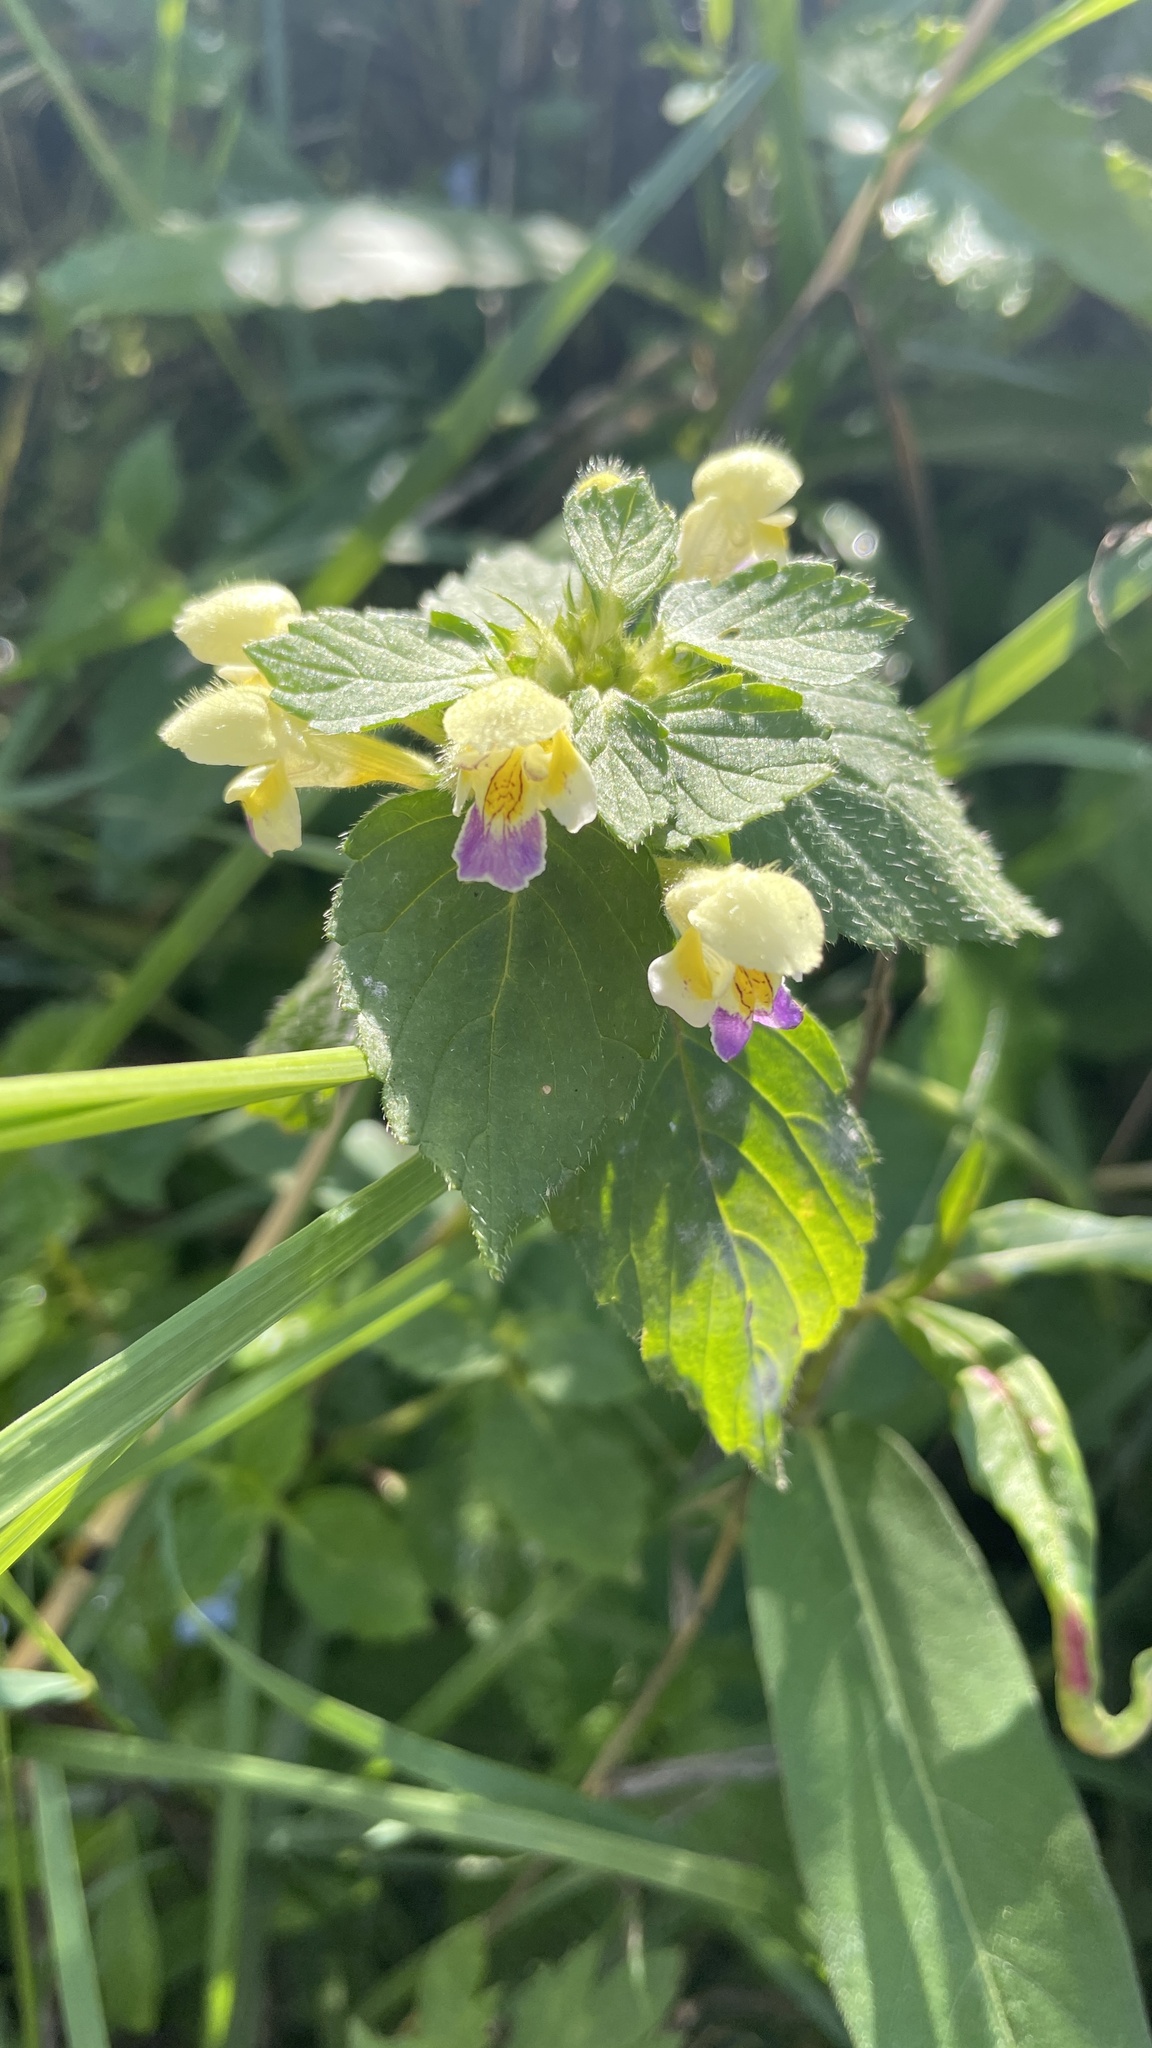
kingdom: Plantae
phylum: Tracheophyta
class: Magnoliopsida
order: Lamiales
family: Lamiaceae
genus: Galeopsis
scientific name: Galeopsis speciosa
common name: Large-flowered hemp-nettle
